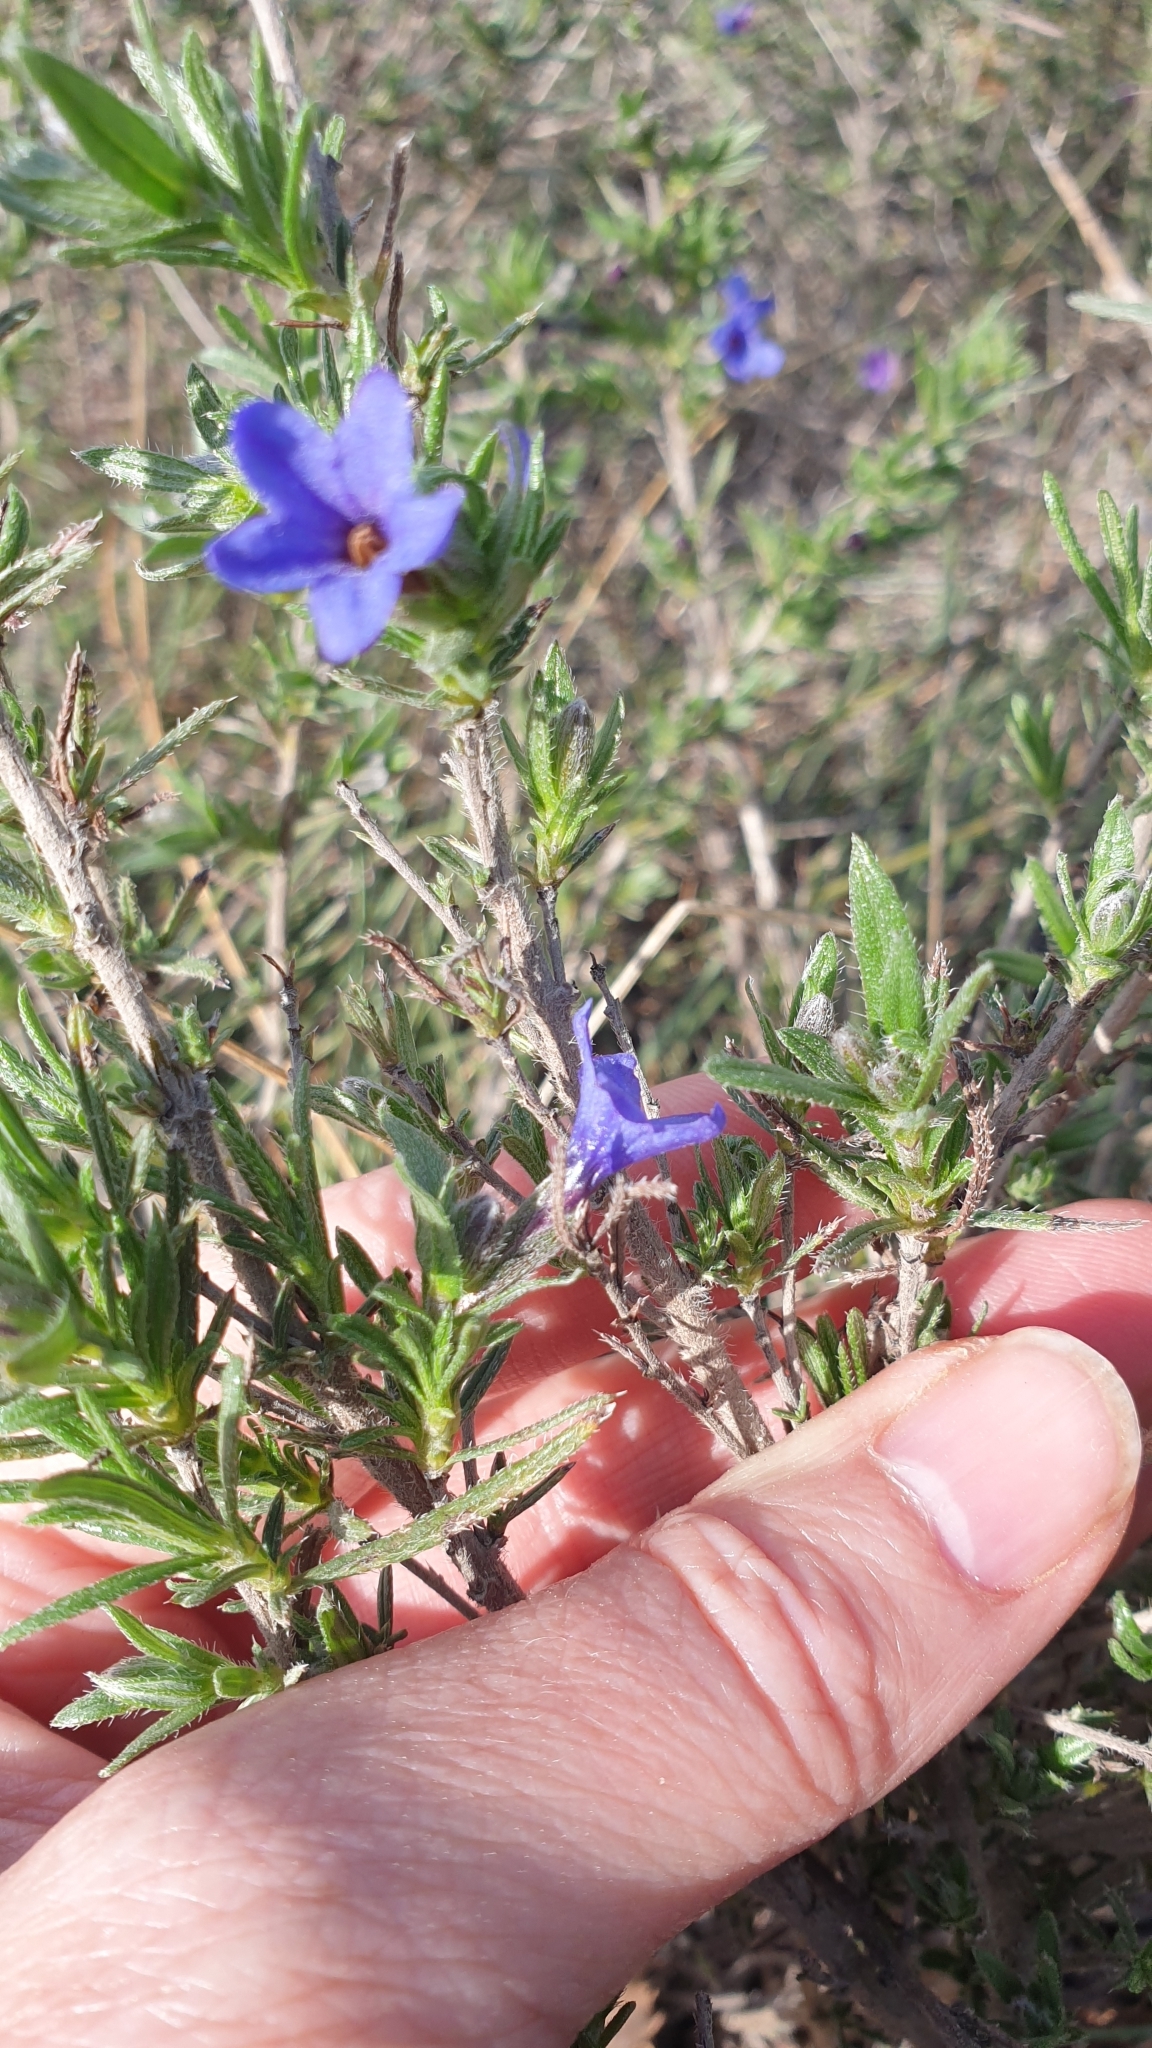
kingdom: Plantae
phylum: Tracheophyta
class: Magnoliopsida
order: Boraginales
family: Boraginaceae
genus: Lithodora
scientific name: Lithodora fruticosa
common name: Shrubby gromwell
